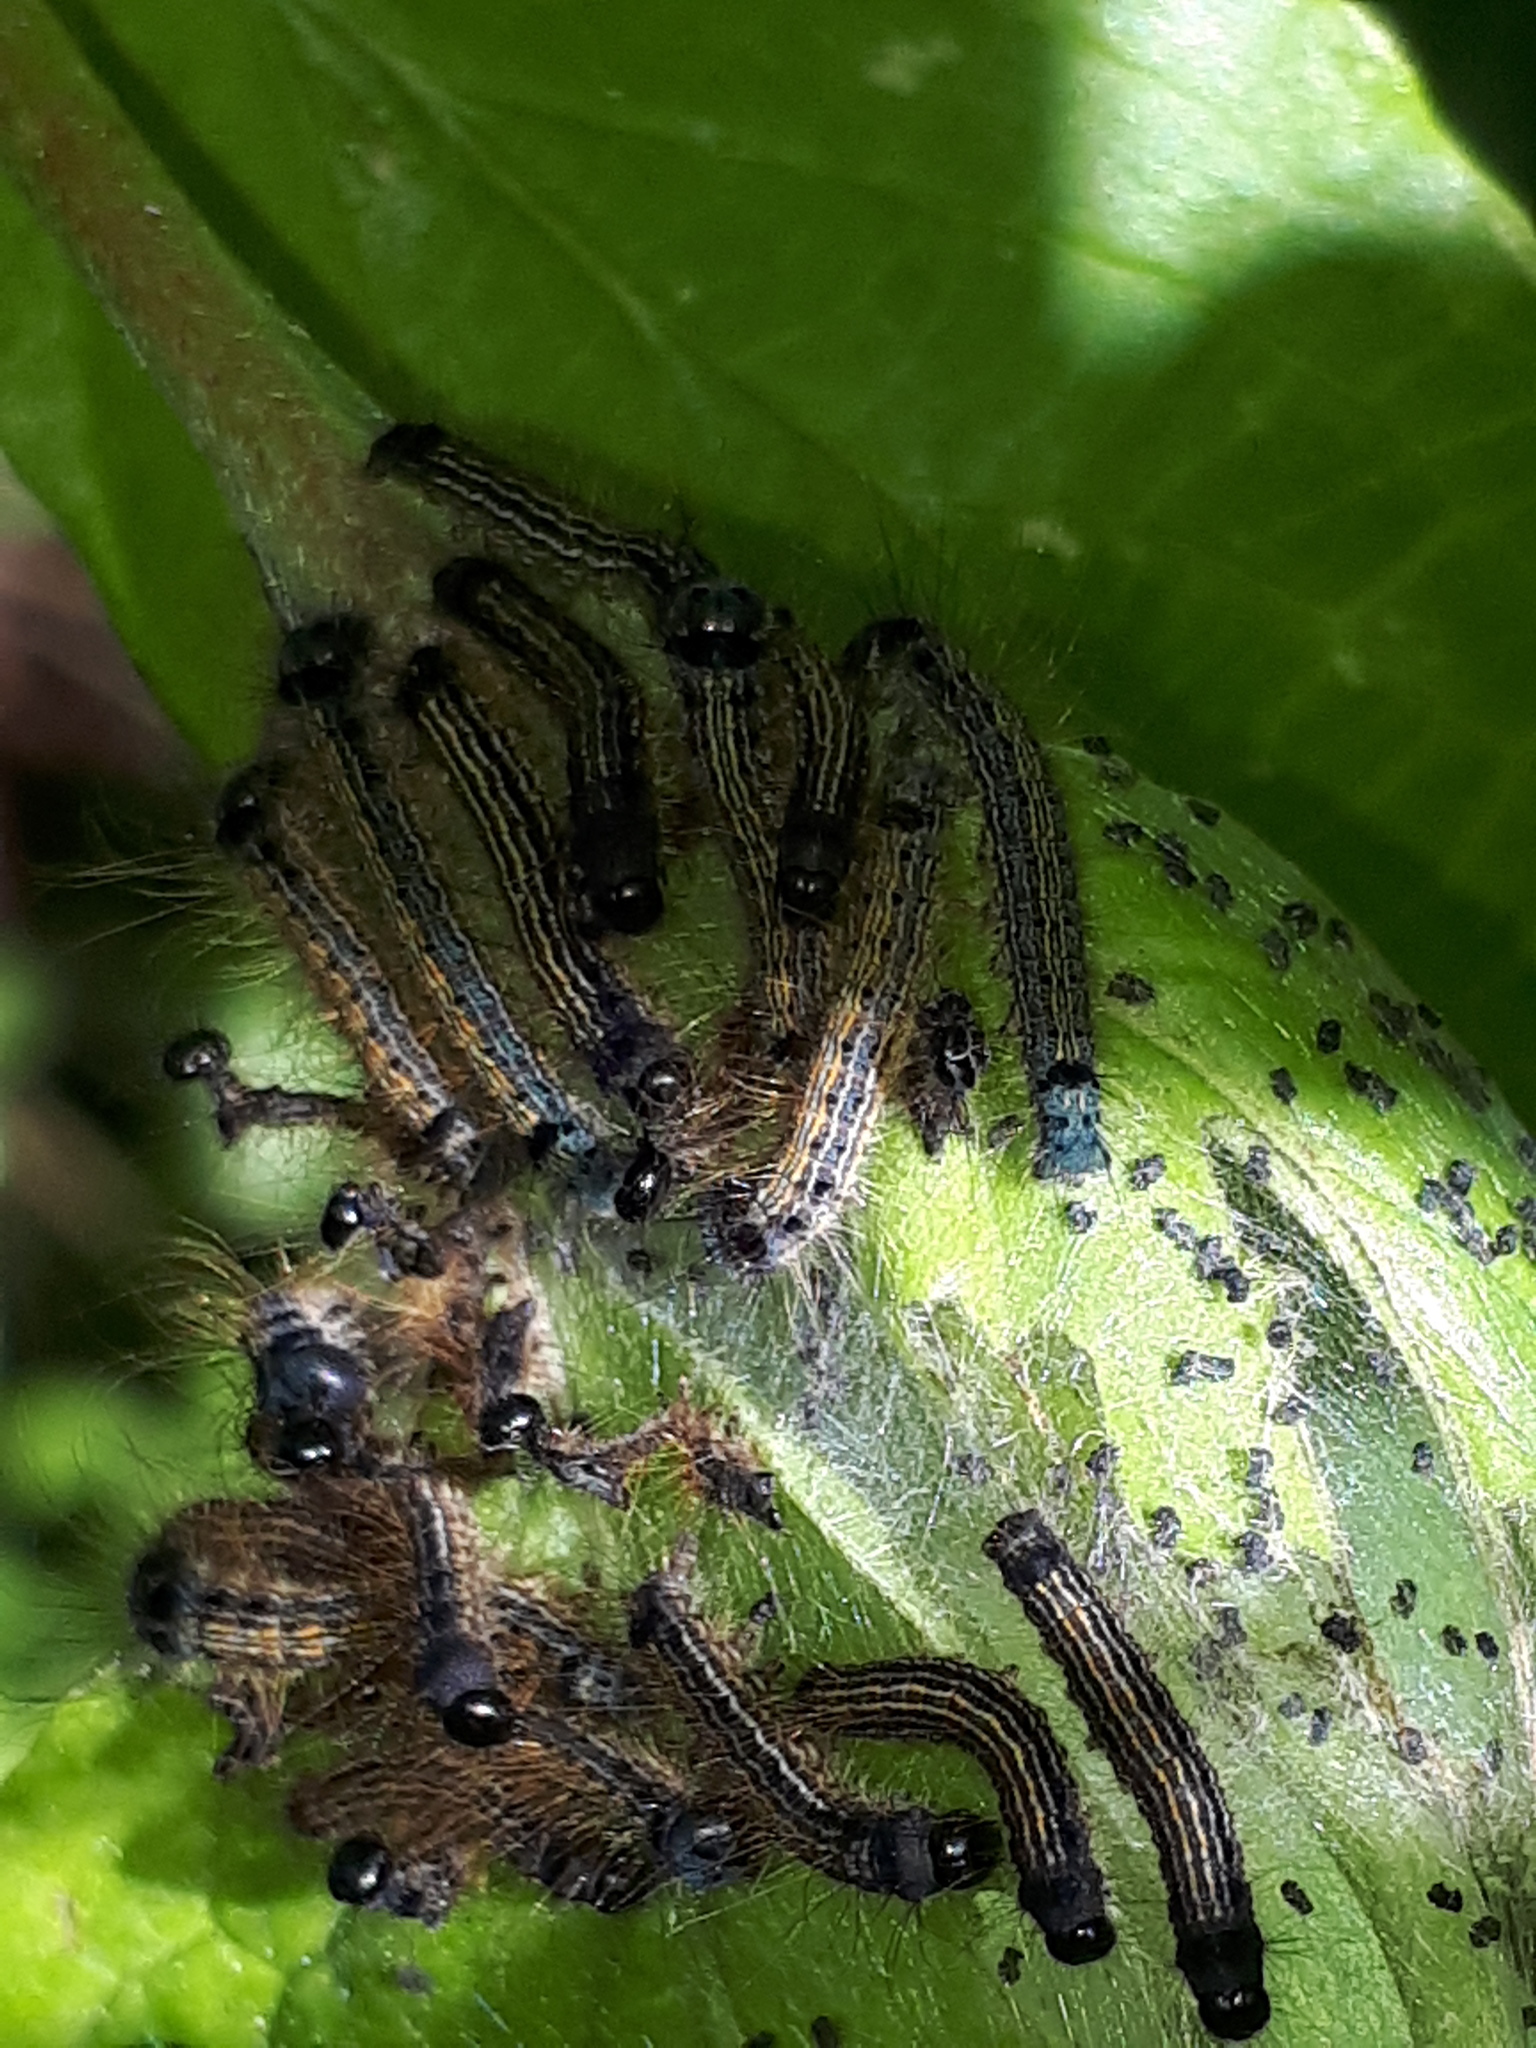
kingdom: Animalia
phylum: Arthropoda
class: Insecta
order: Lepidoptera
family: Lasiocampidae
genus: Malacosoma
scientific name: Malacosoma neustria
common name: The lackey
